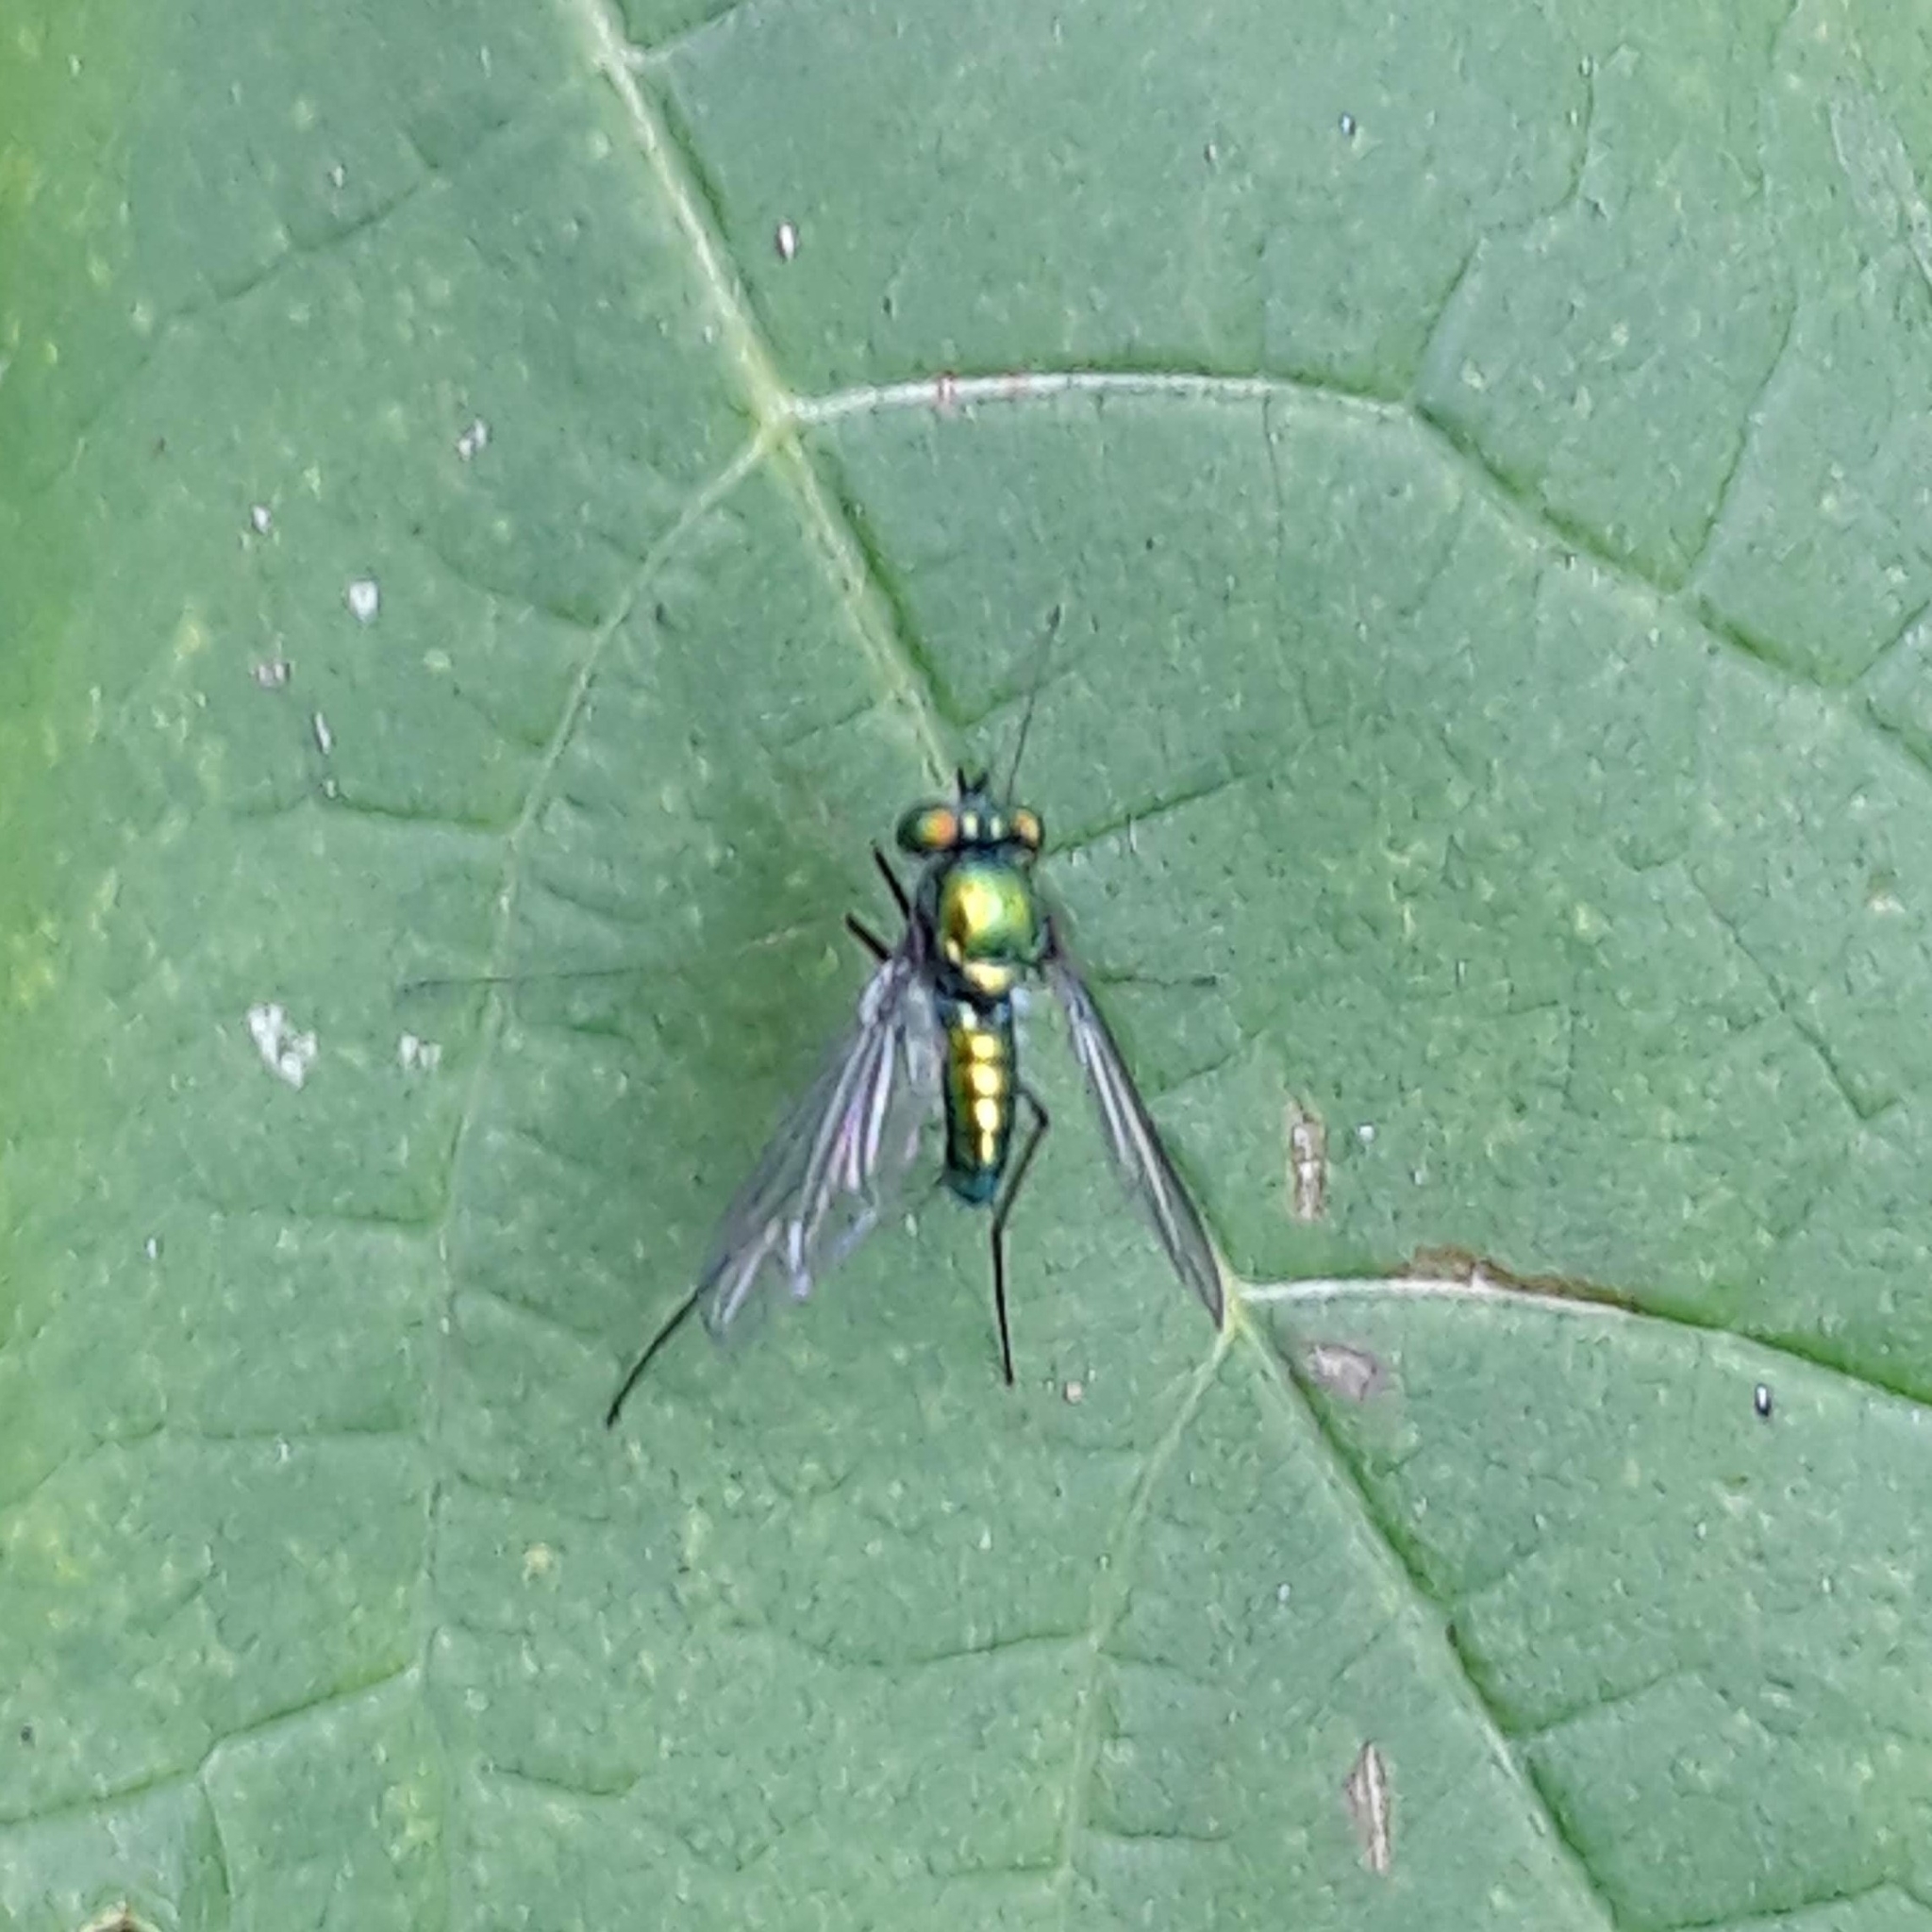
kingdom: Animalia
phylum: Arthropoda
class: Insecta
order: Diptera
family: Dolichopodidae
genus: Condylostylus
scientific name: Condylostylus comatus
